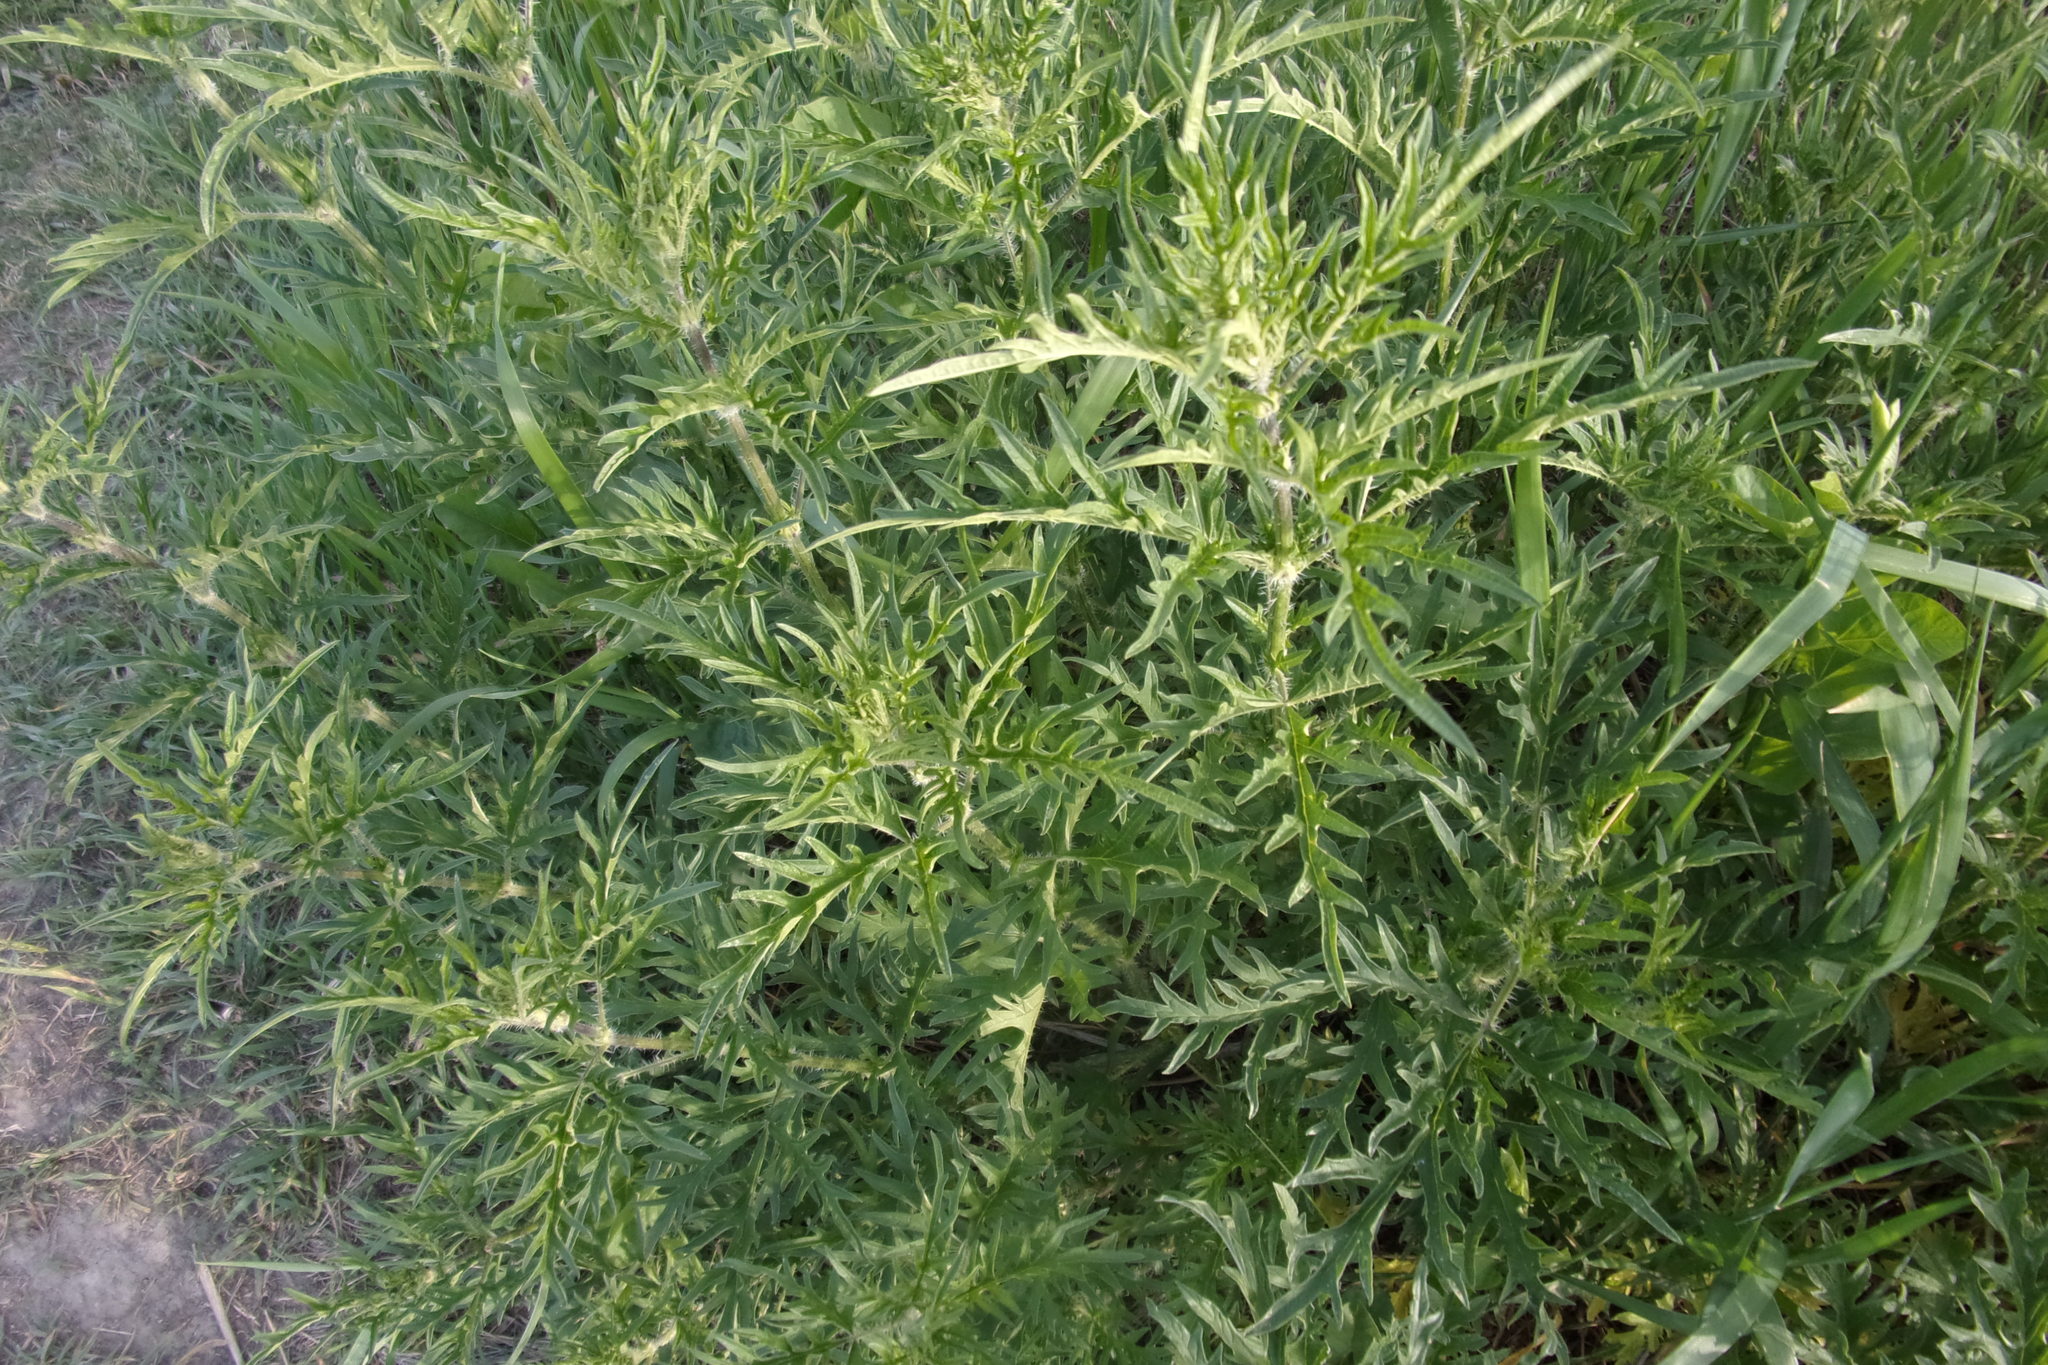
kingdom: Plantae
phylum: Tracheophyta
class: Magnoliopsida
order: Rosales
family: Urticaceae
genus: Urtica
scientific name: Urtica cannabina
